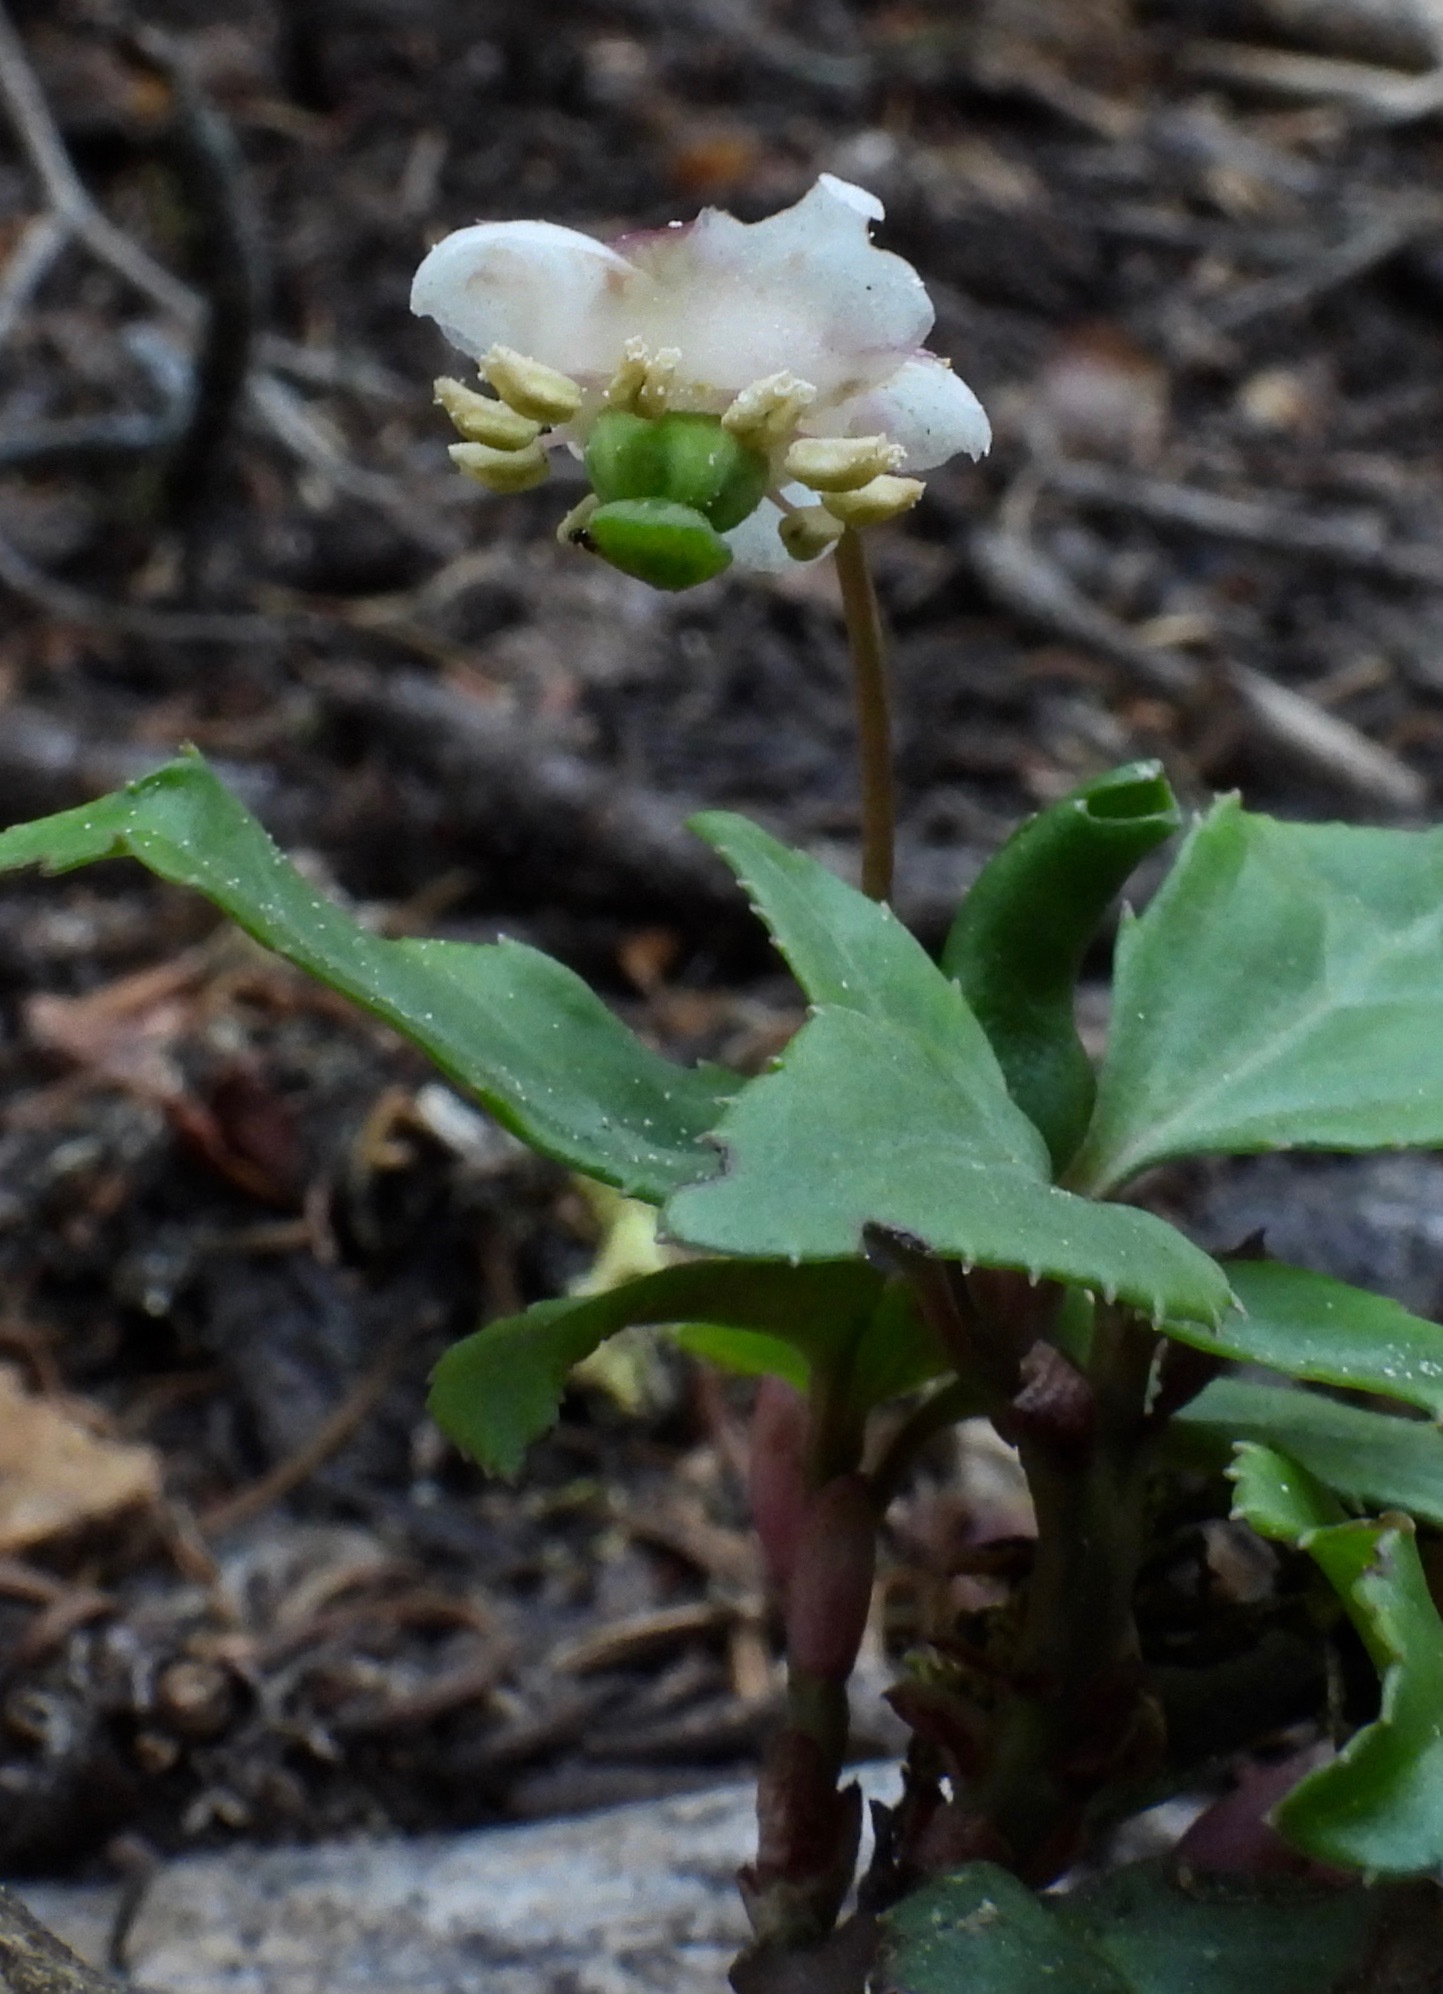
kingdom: Plantae
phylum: Tracheophyta
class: Magnoliopsida
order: Ericales
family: Ericaceae
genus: Chimaphila
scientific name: Chimaphila menziesii
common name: Menzies' pipsissewa
